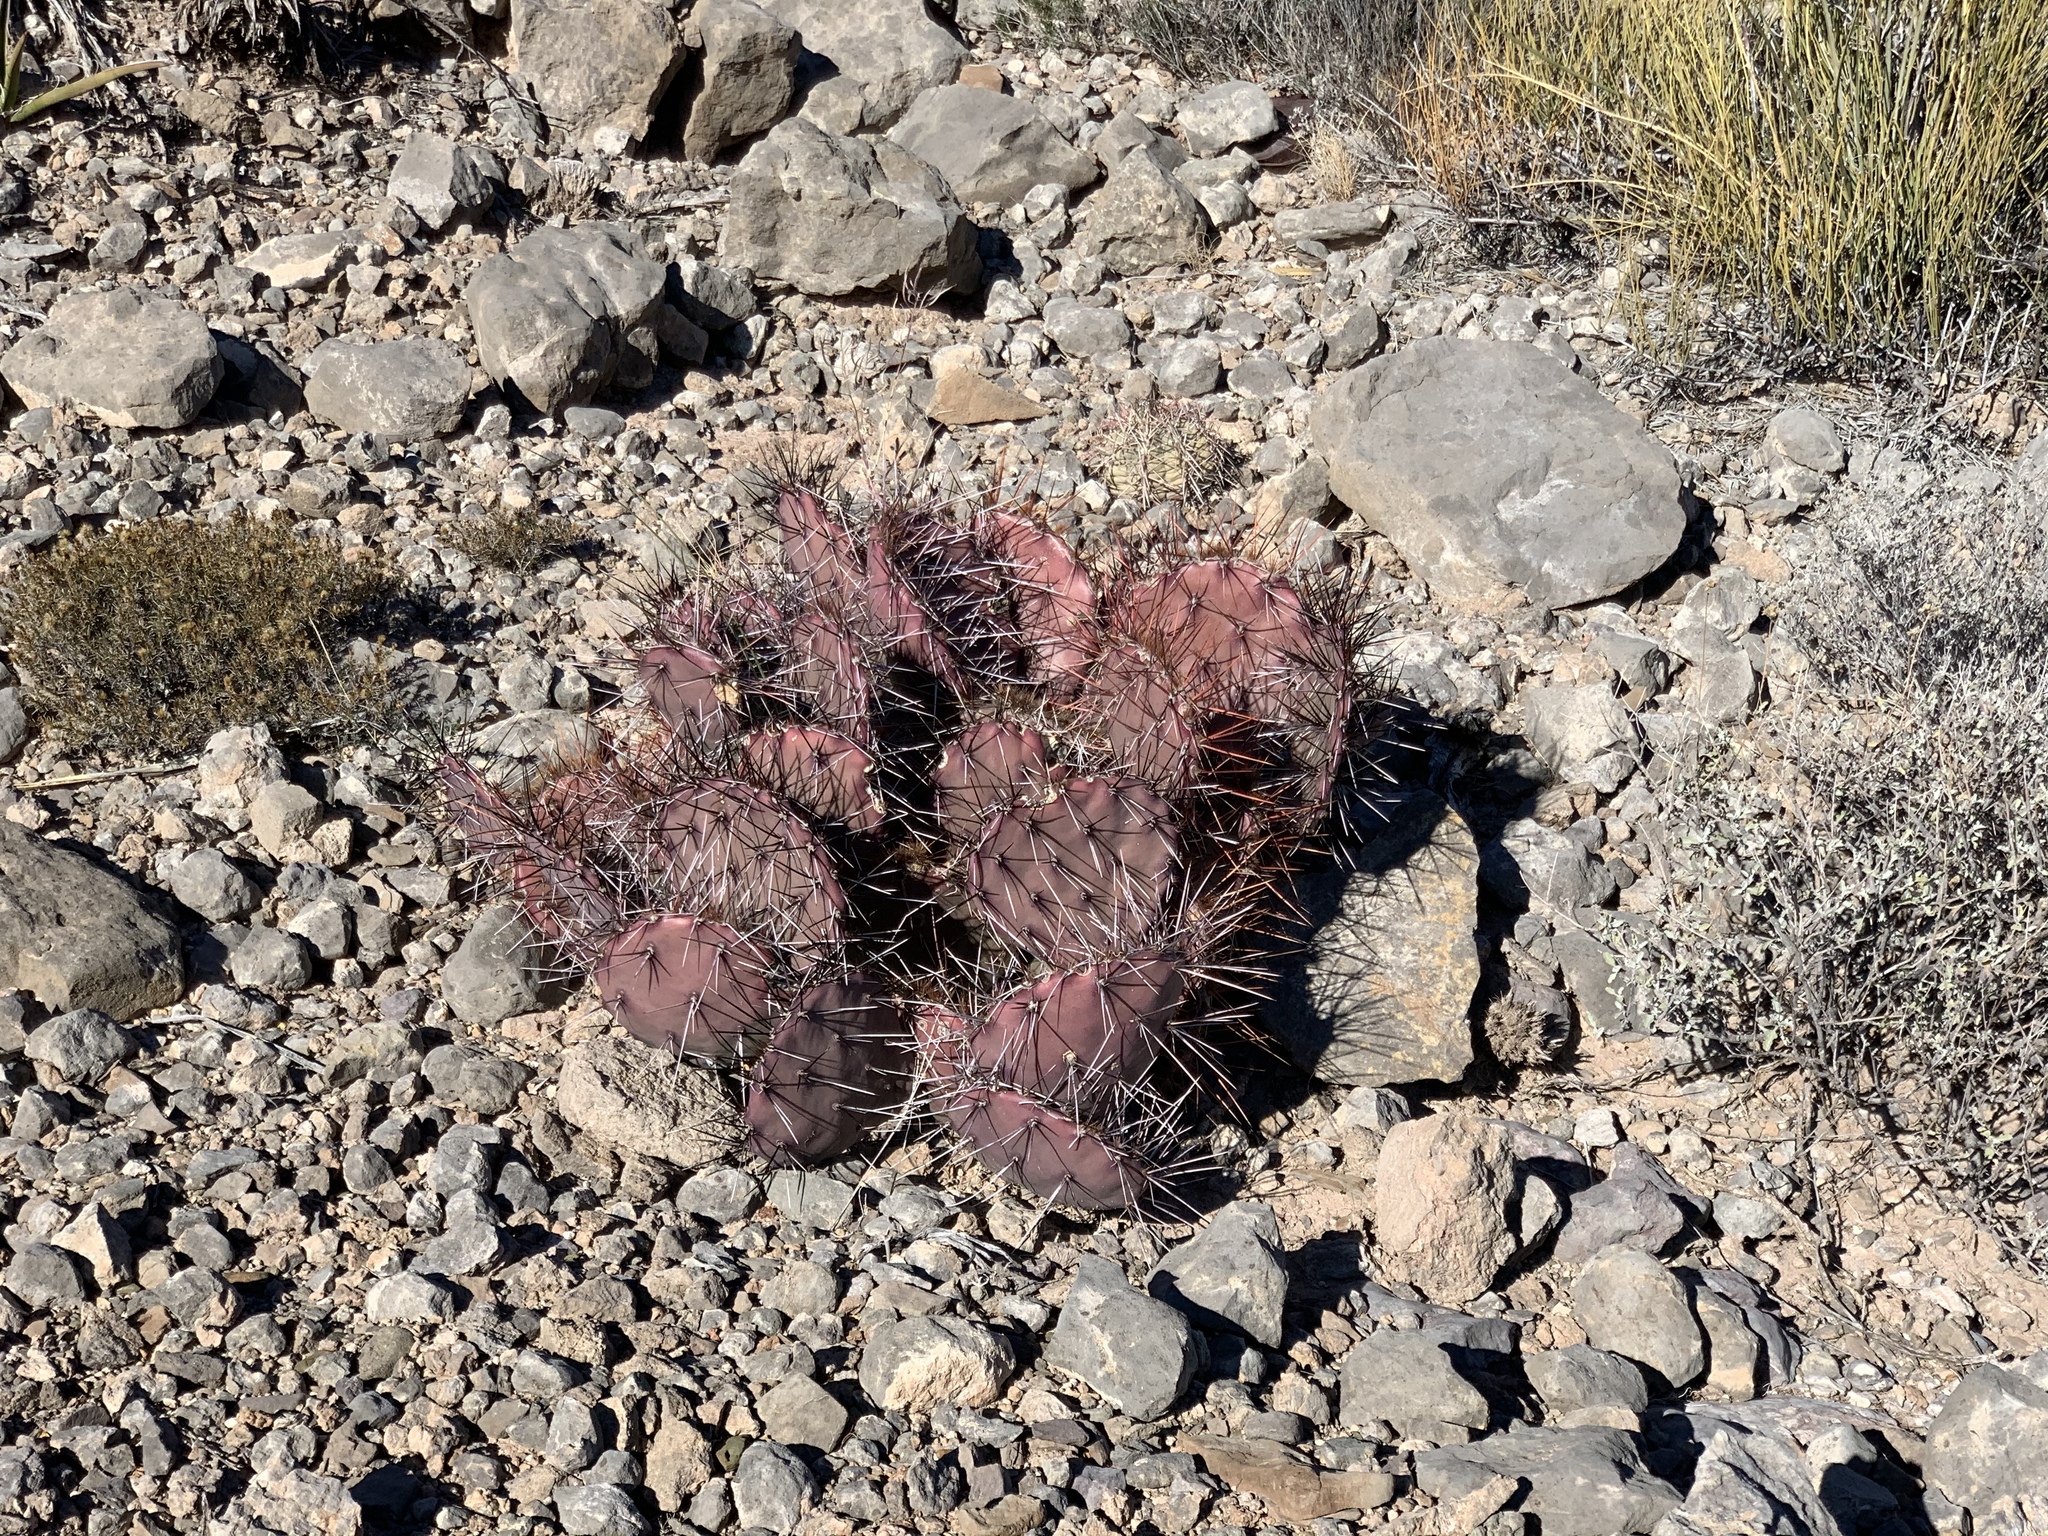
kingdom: Plantae
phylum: Tracheophyta
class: Magnoliopsida
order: Caryophyllales
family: Cactaceae
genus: Opuntia
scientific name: Opuntia macrocentra
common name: Purple prickly-pear
